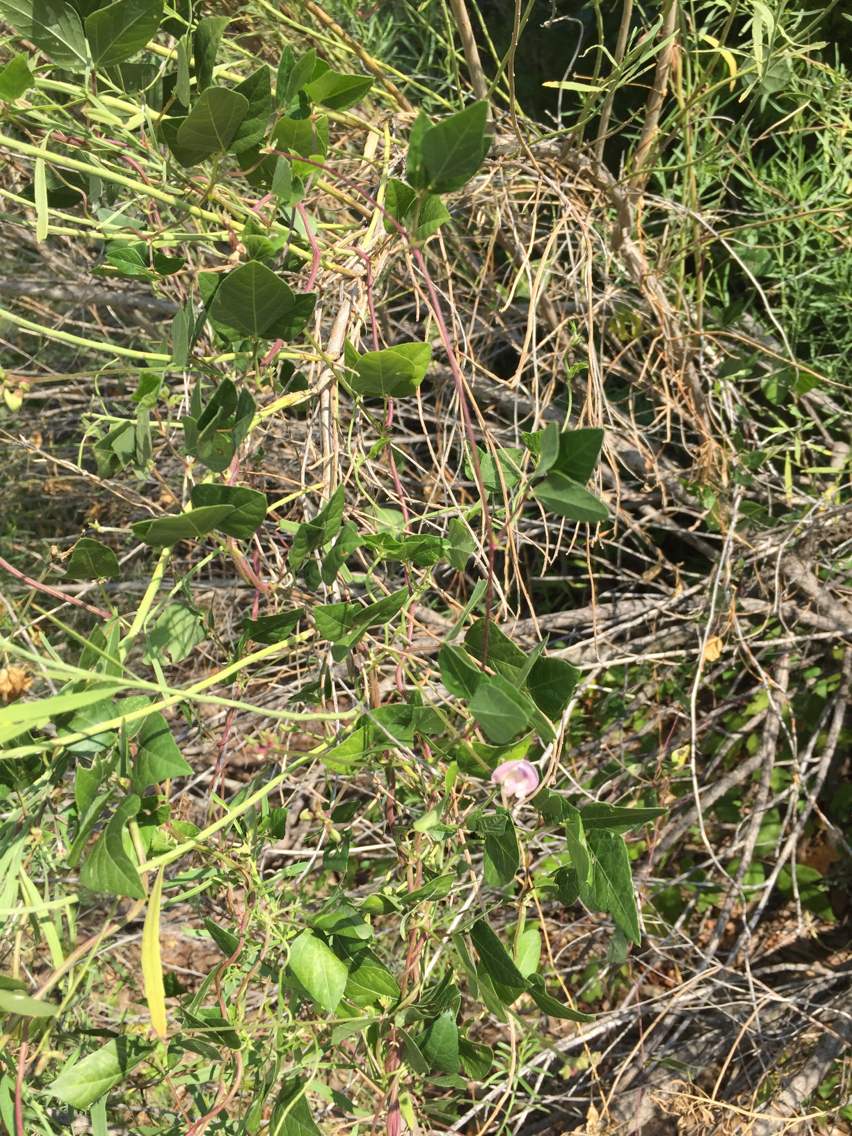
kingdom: Plantae
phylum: Tracheophyta
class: Magnoliopsida
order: Fabales
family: Fabaceae
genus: Strophostyles
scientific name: Strophostyles helvola
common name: Trailing wild bean
